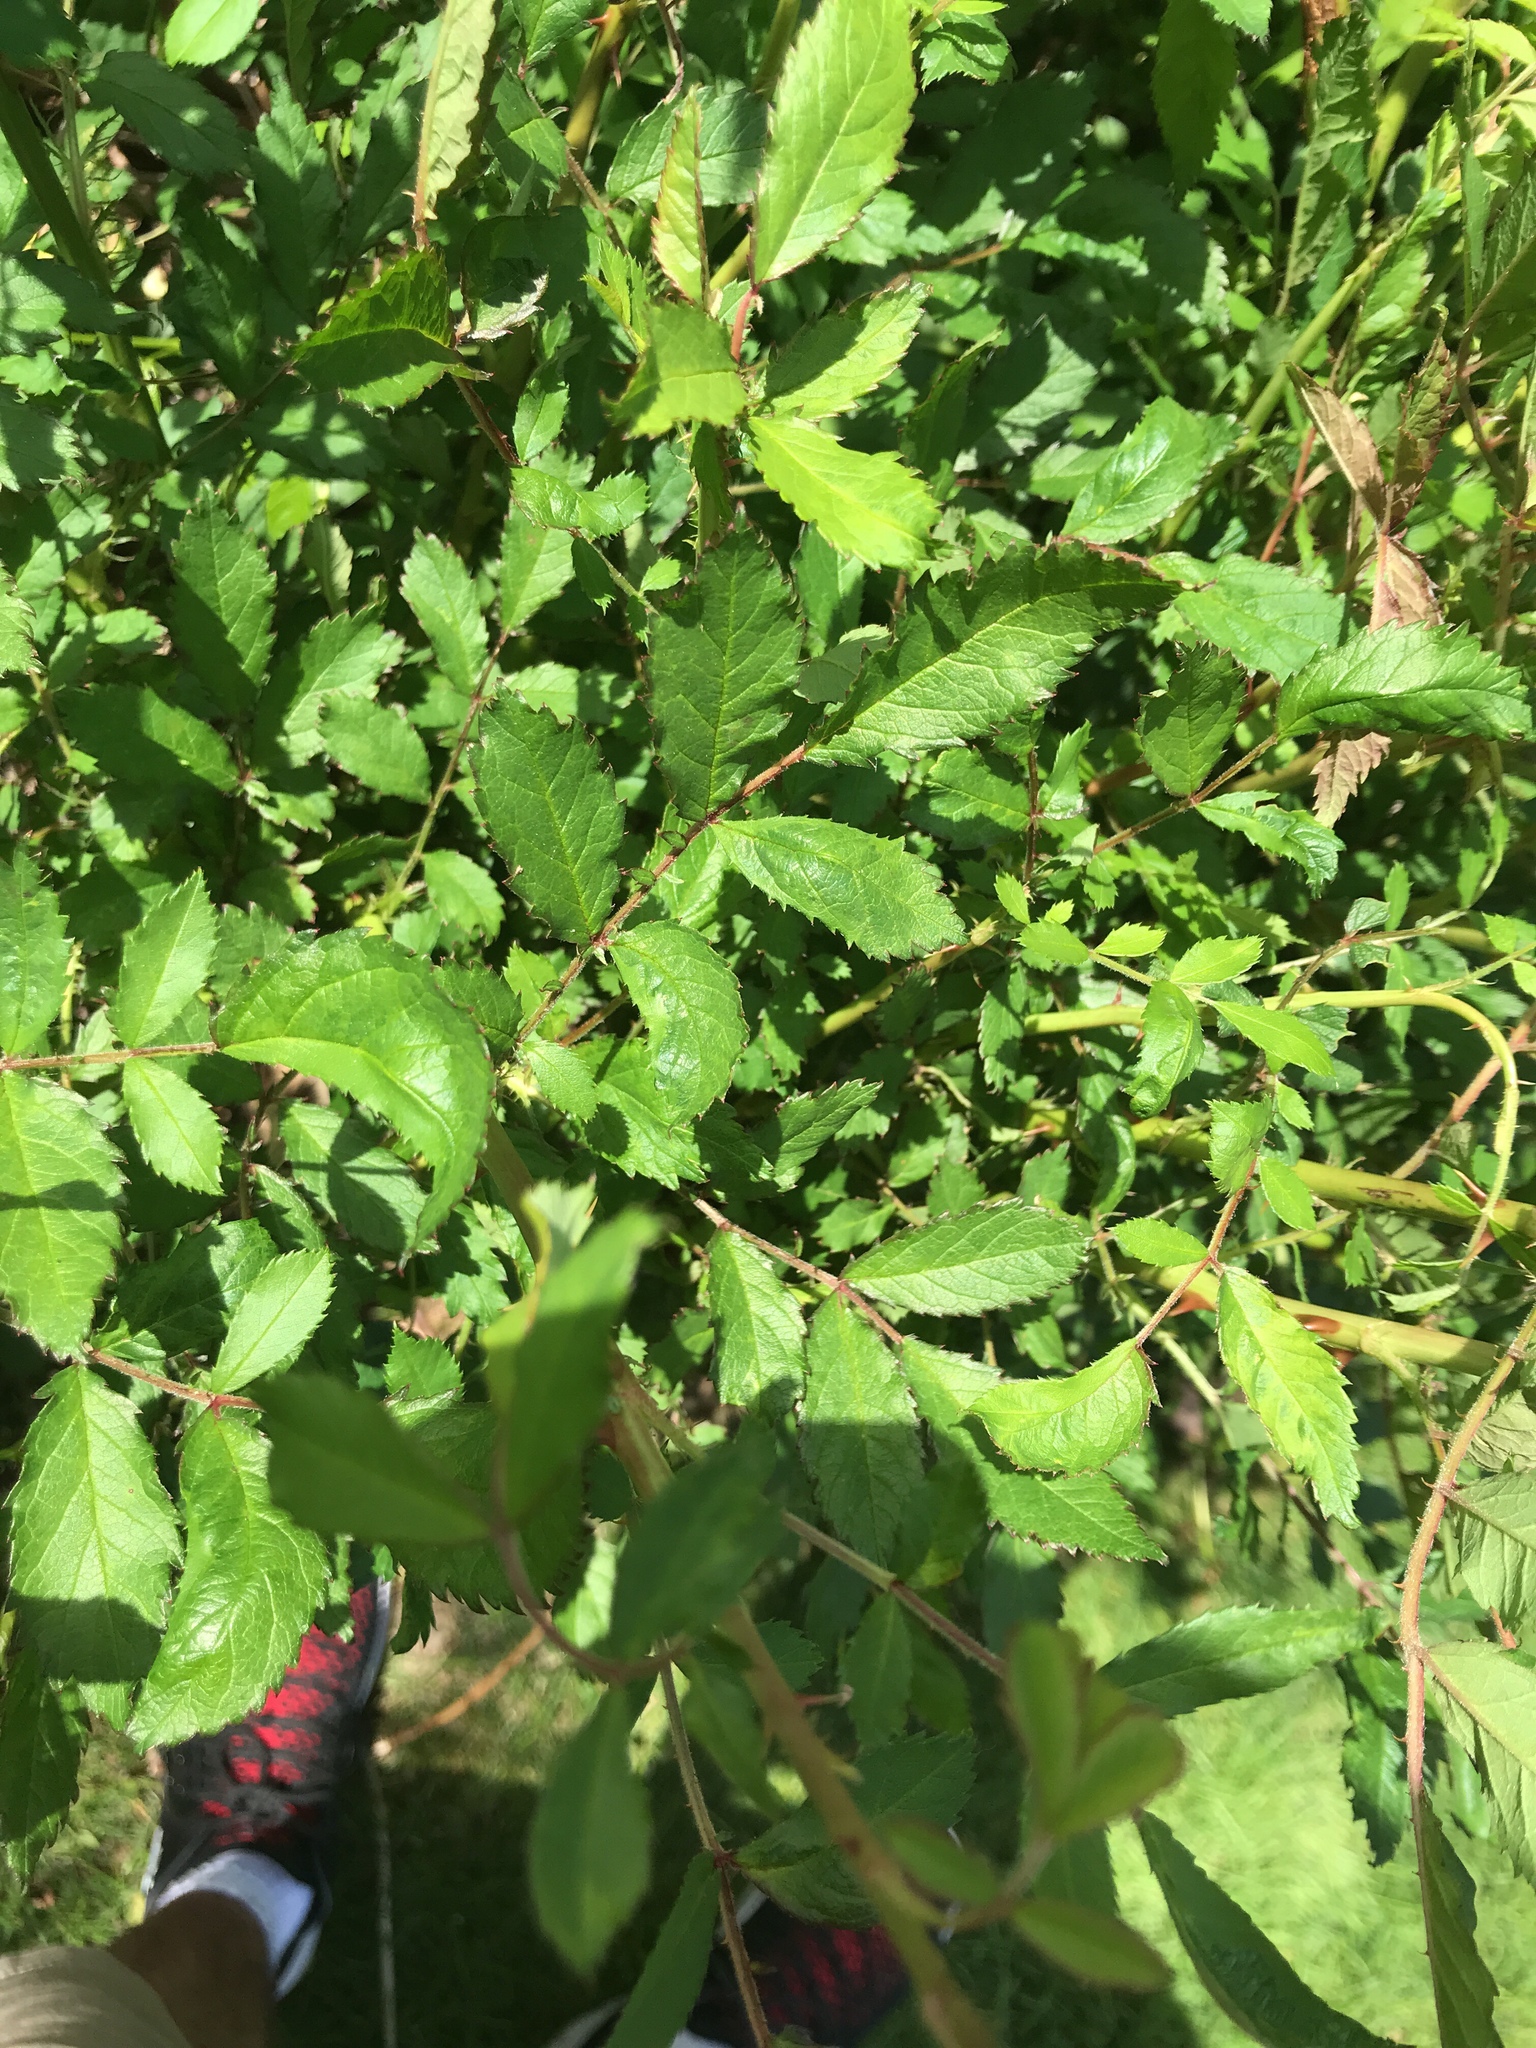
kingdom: Plantae
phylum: Tracheophyta
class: Magnoliopsida
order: Rosales
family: Rosaceae
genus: Rosa
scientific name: Rosa multiflora
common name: Multiflora rose
